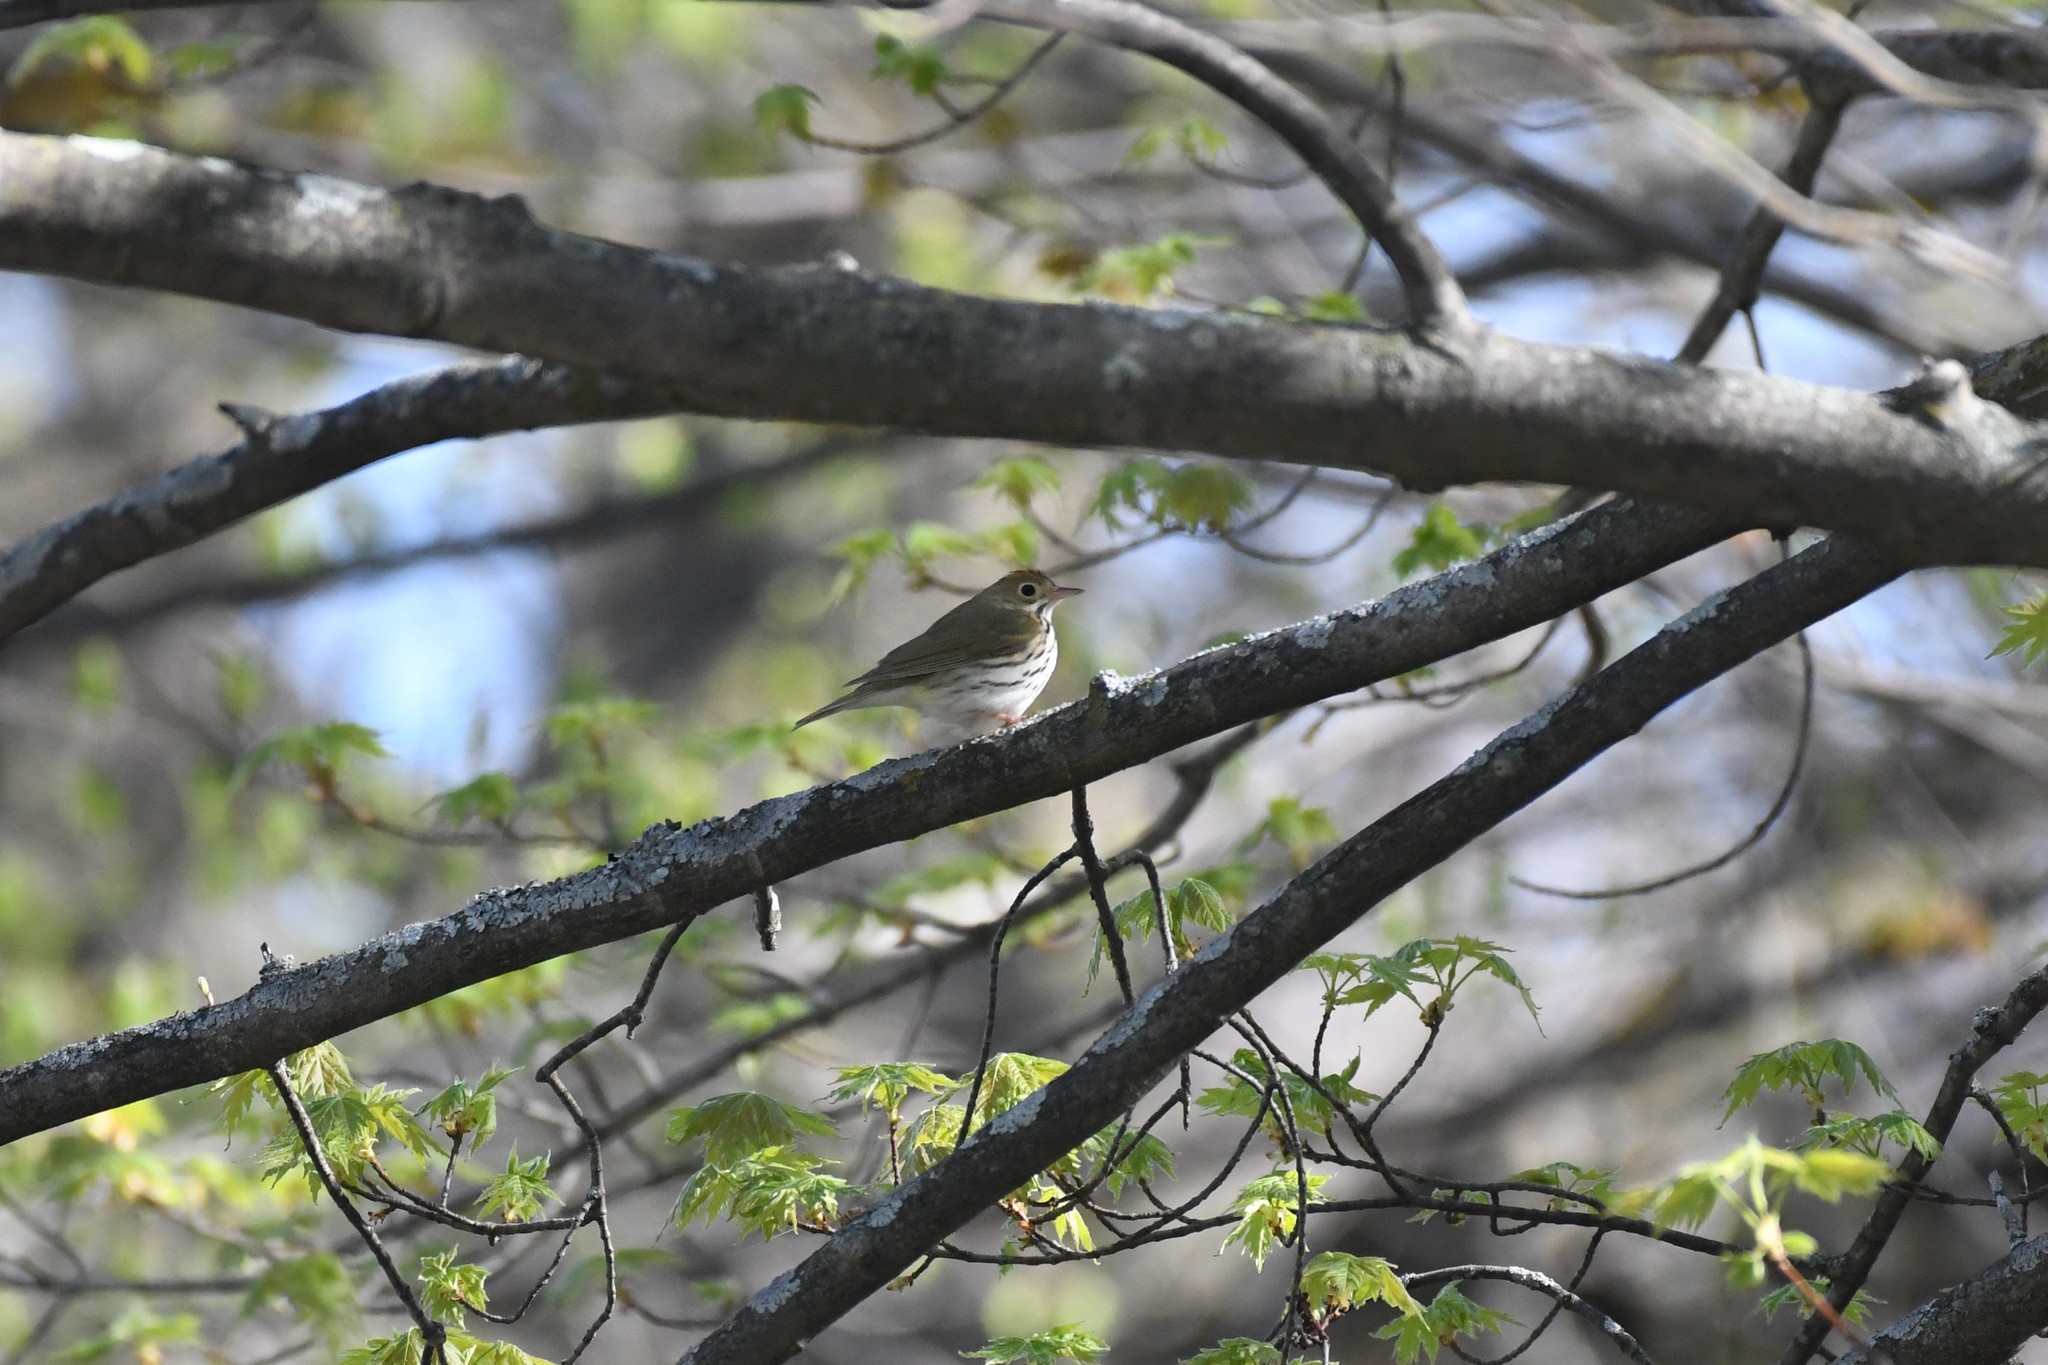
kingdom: Animalia
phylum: Chordata
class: Aves
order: Passeriformes
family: Parulidae
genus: Seiurus
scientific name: Seiurus aurocapilla
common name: Ovenbird
